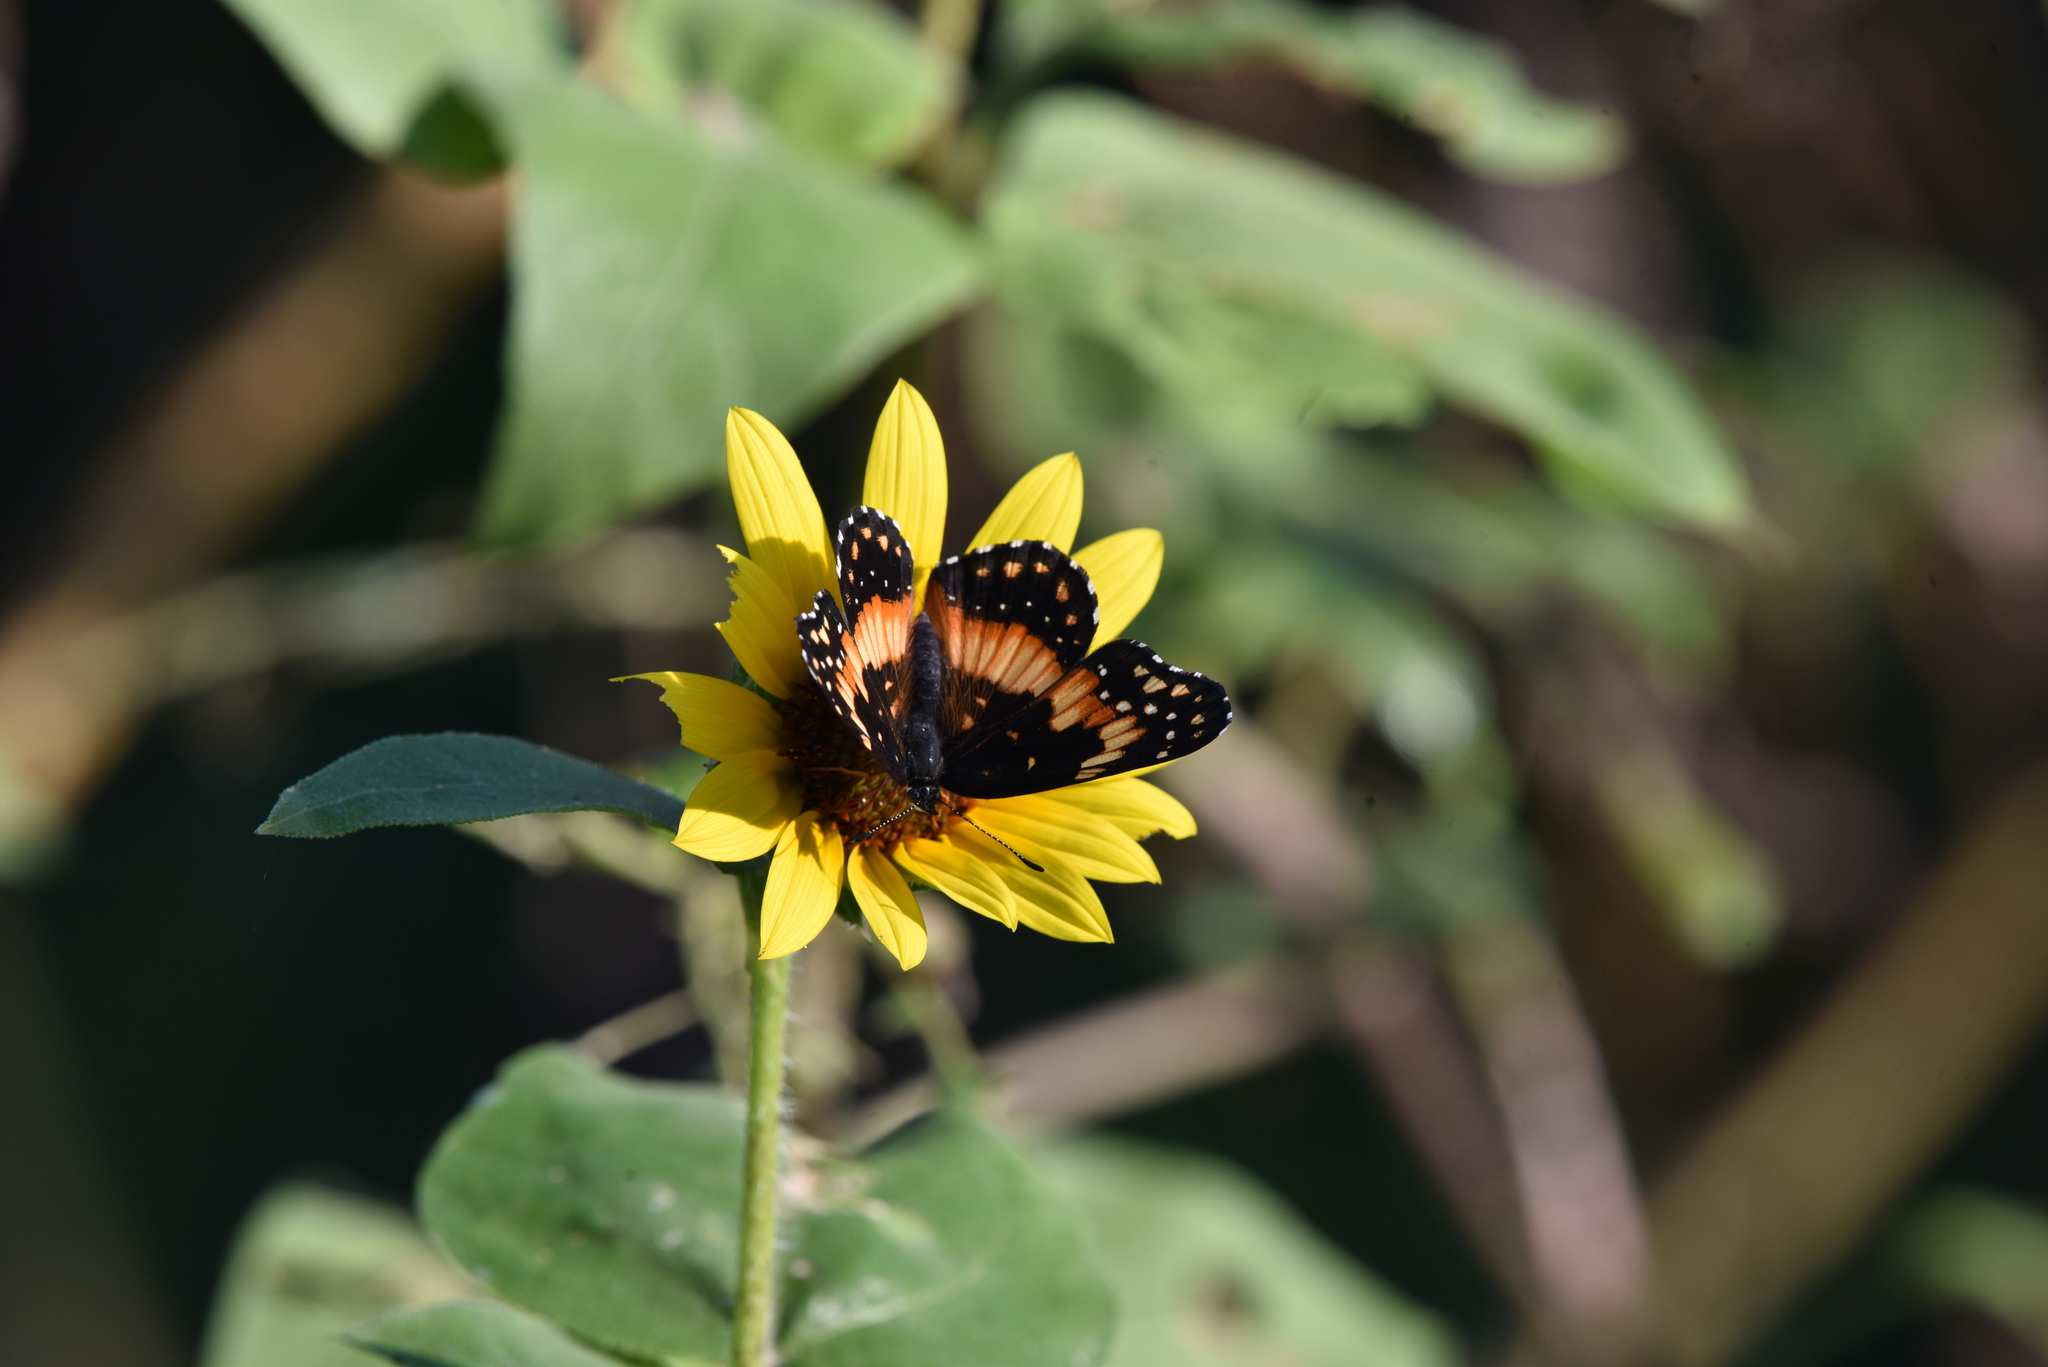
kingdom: Animalia
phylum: Arthropoda
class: Insecta
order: Lepidoptera
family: Nymphalidae
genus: Chlosyne
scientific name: Chlosyne lacinia
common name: Bordered patch
